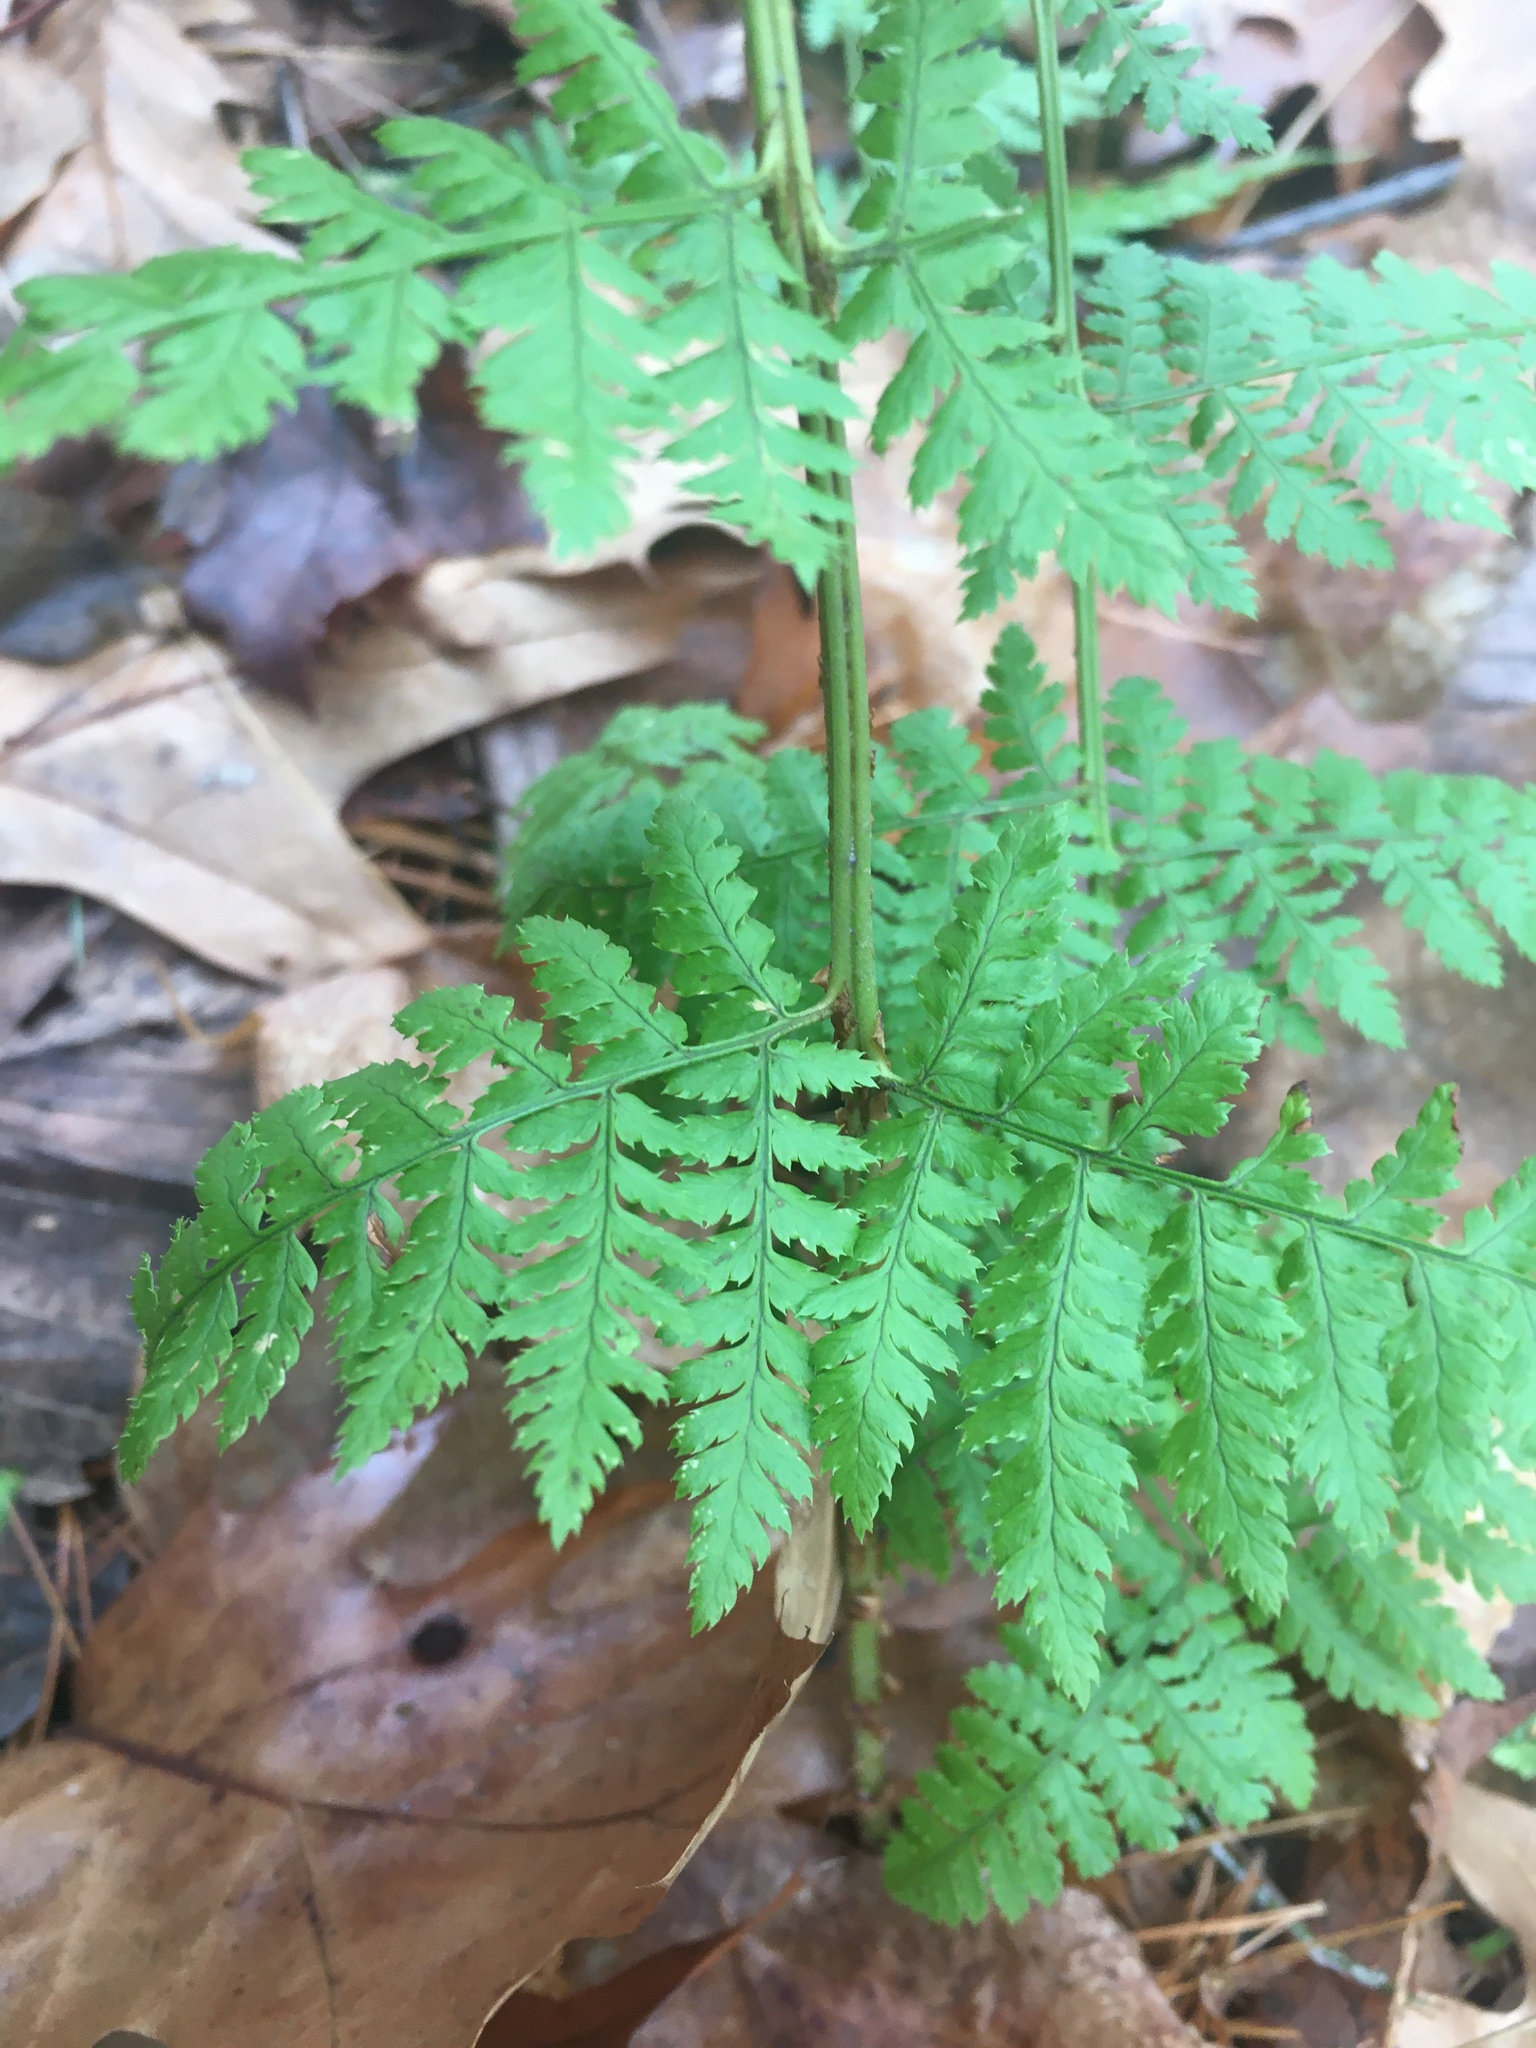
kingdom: Plantae
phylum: Tracheophyta
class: Polypodiopsida
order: Polypodiales
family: Dryopteridaceae
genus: Dryopteris
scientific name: Dryopteris intermedia
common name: Evergreen wood fern
